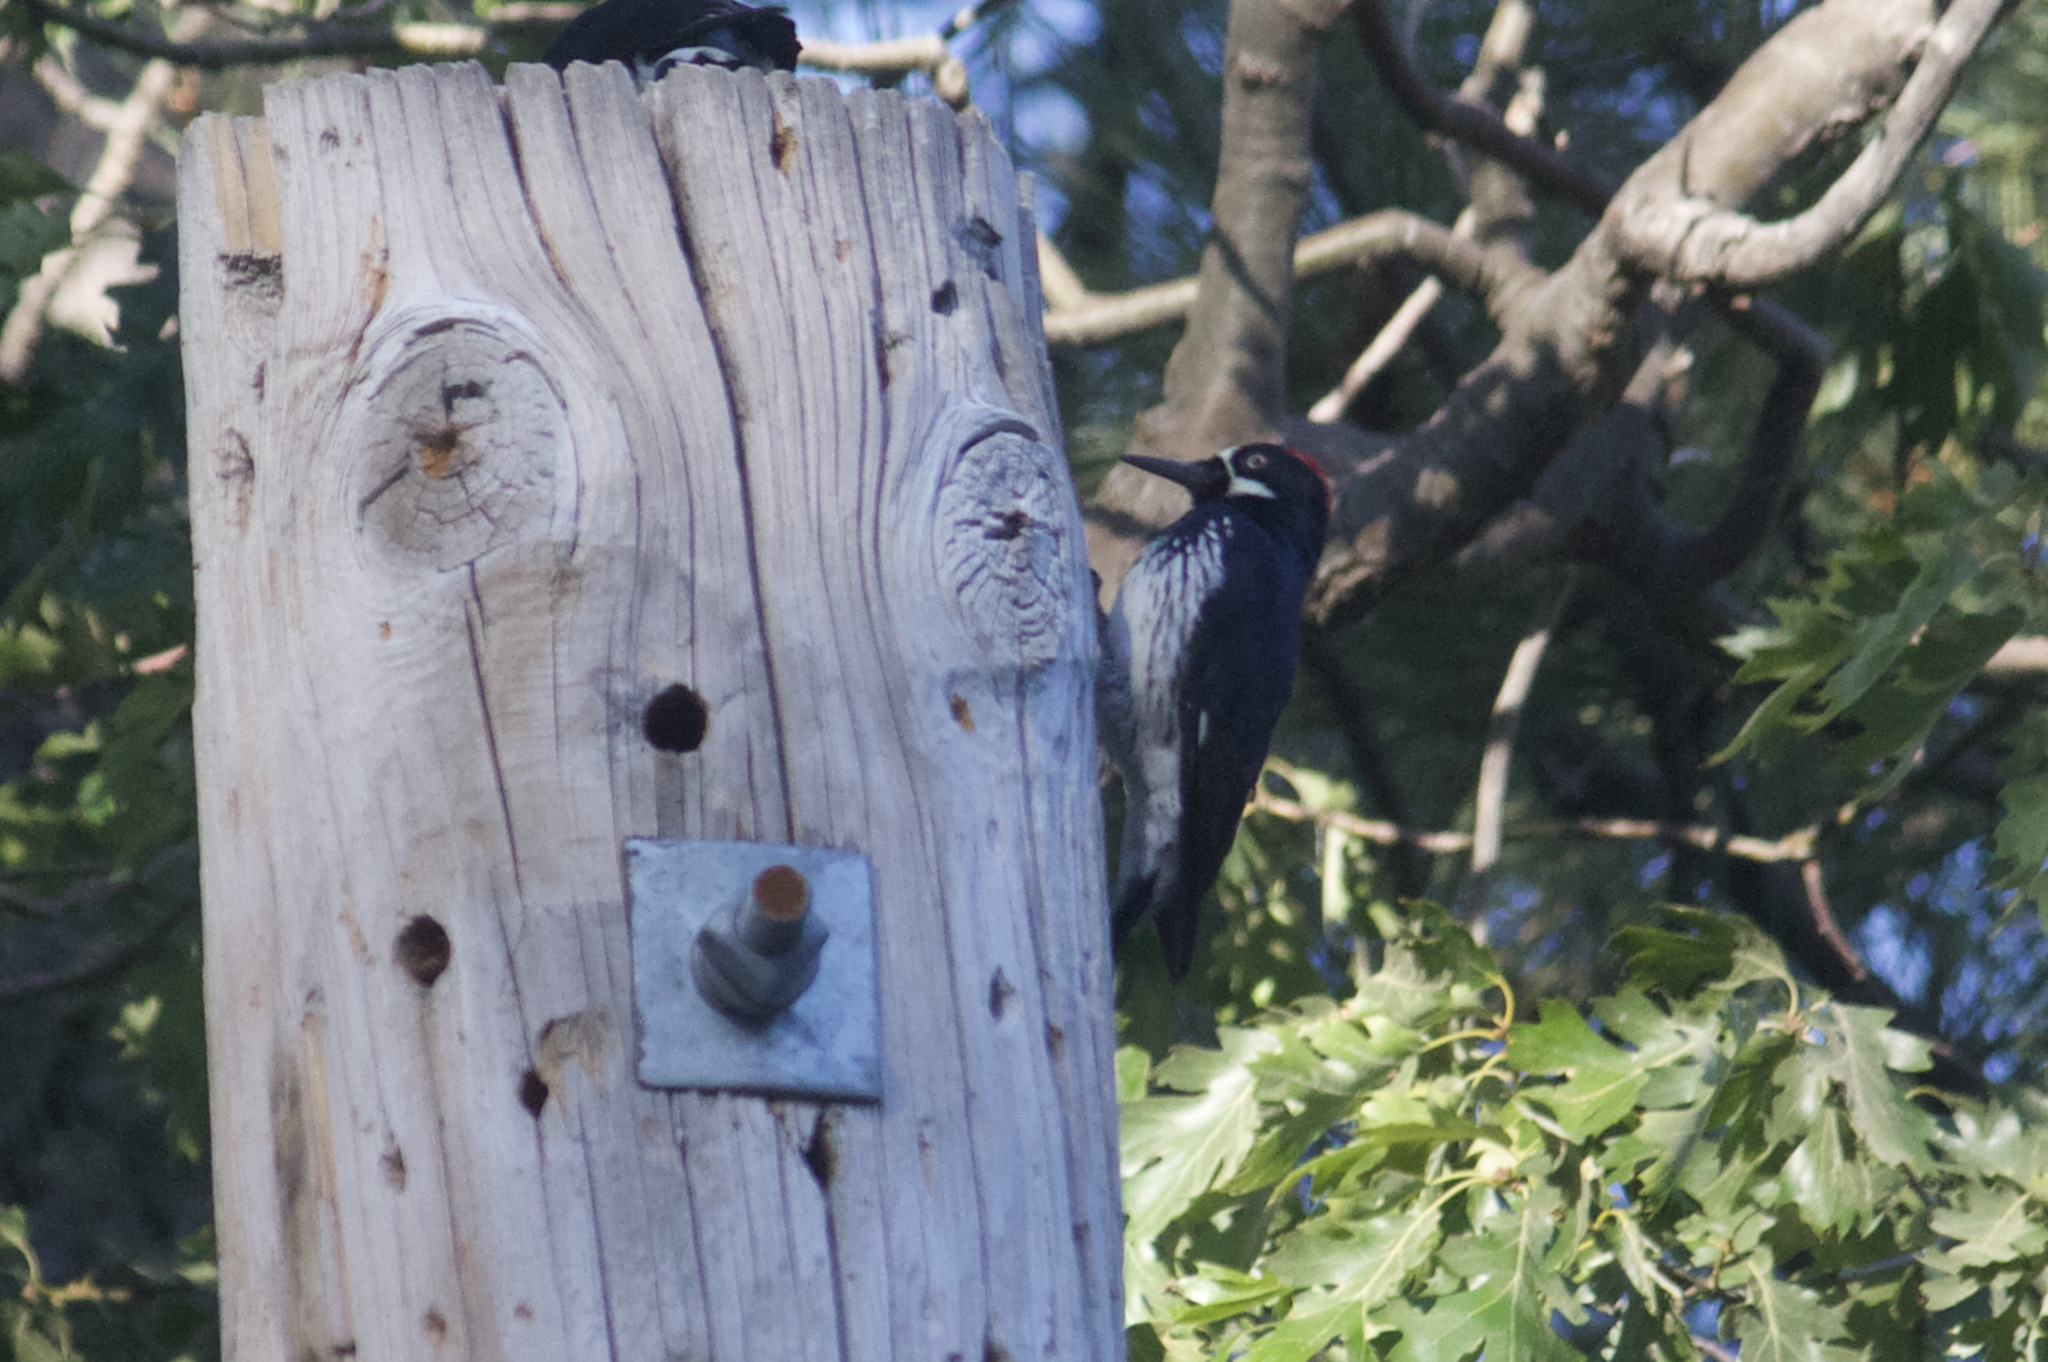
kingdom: Animalia
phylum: Chordata
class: Aves
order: Piciformes
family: Picidae
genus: Melanerpes
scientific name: Melanerpes formicivorus
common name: Acorn woodpecker
